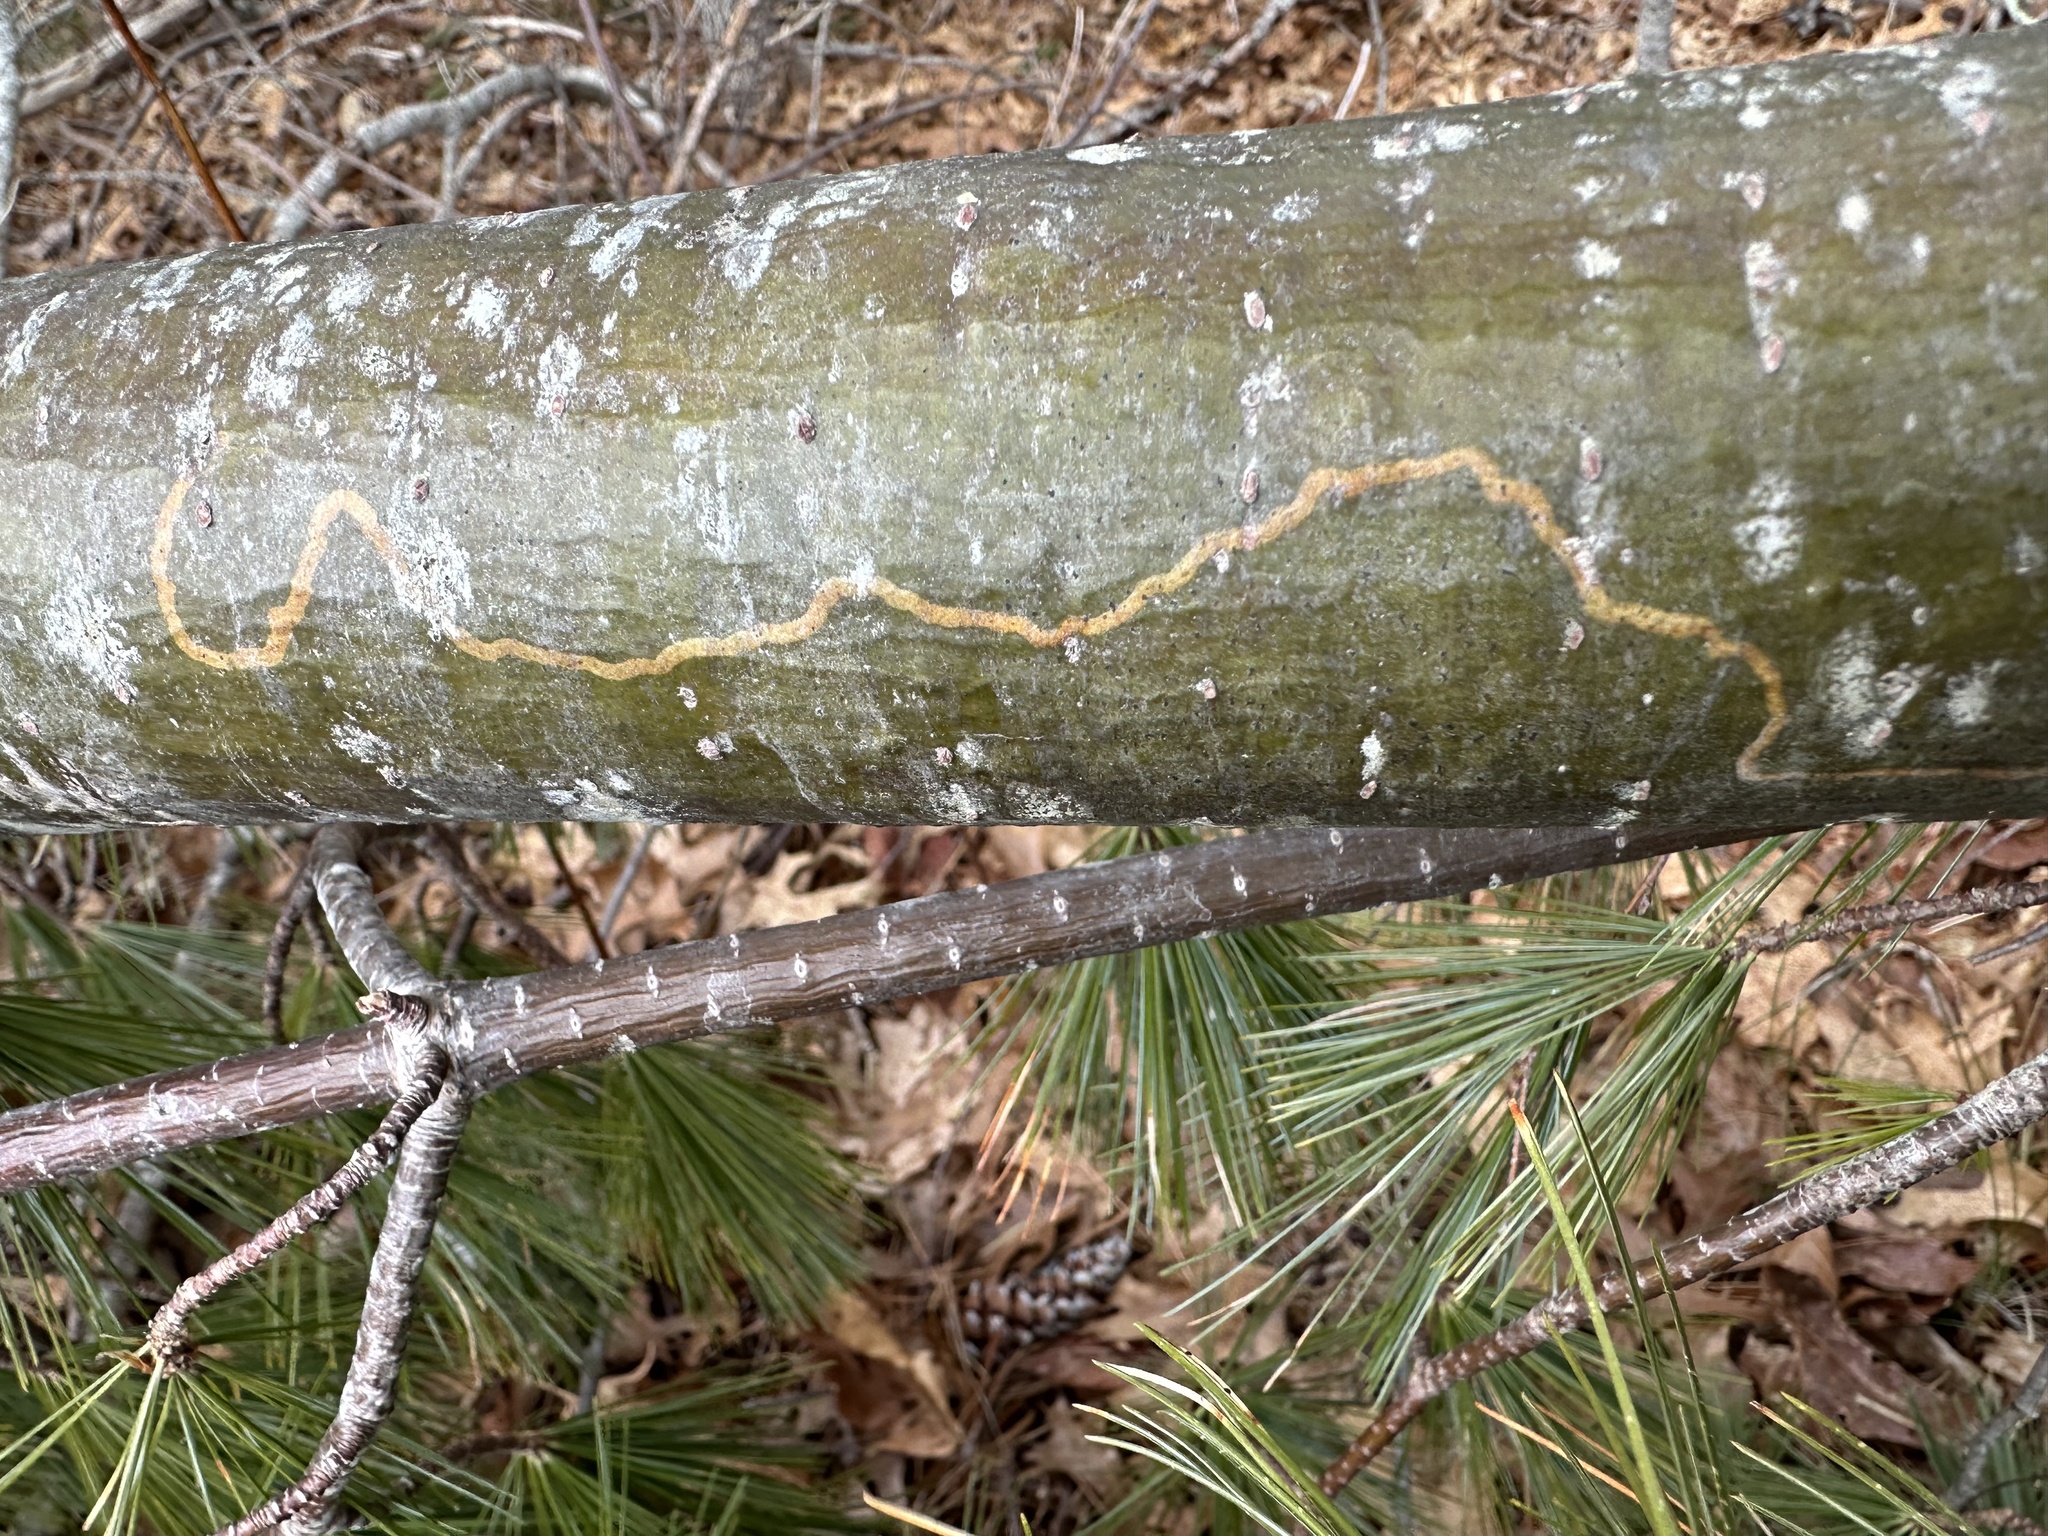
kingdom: Animalia
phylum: Arthropoda
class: Insecta
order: Lepidoptera
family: Gracillariidae
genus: Marmara
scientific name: Marmara fasciella
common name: White pine barkminer moth
